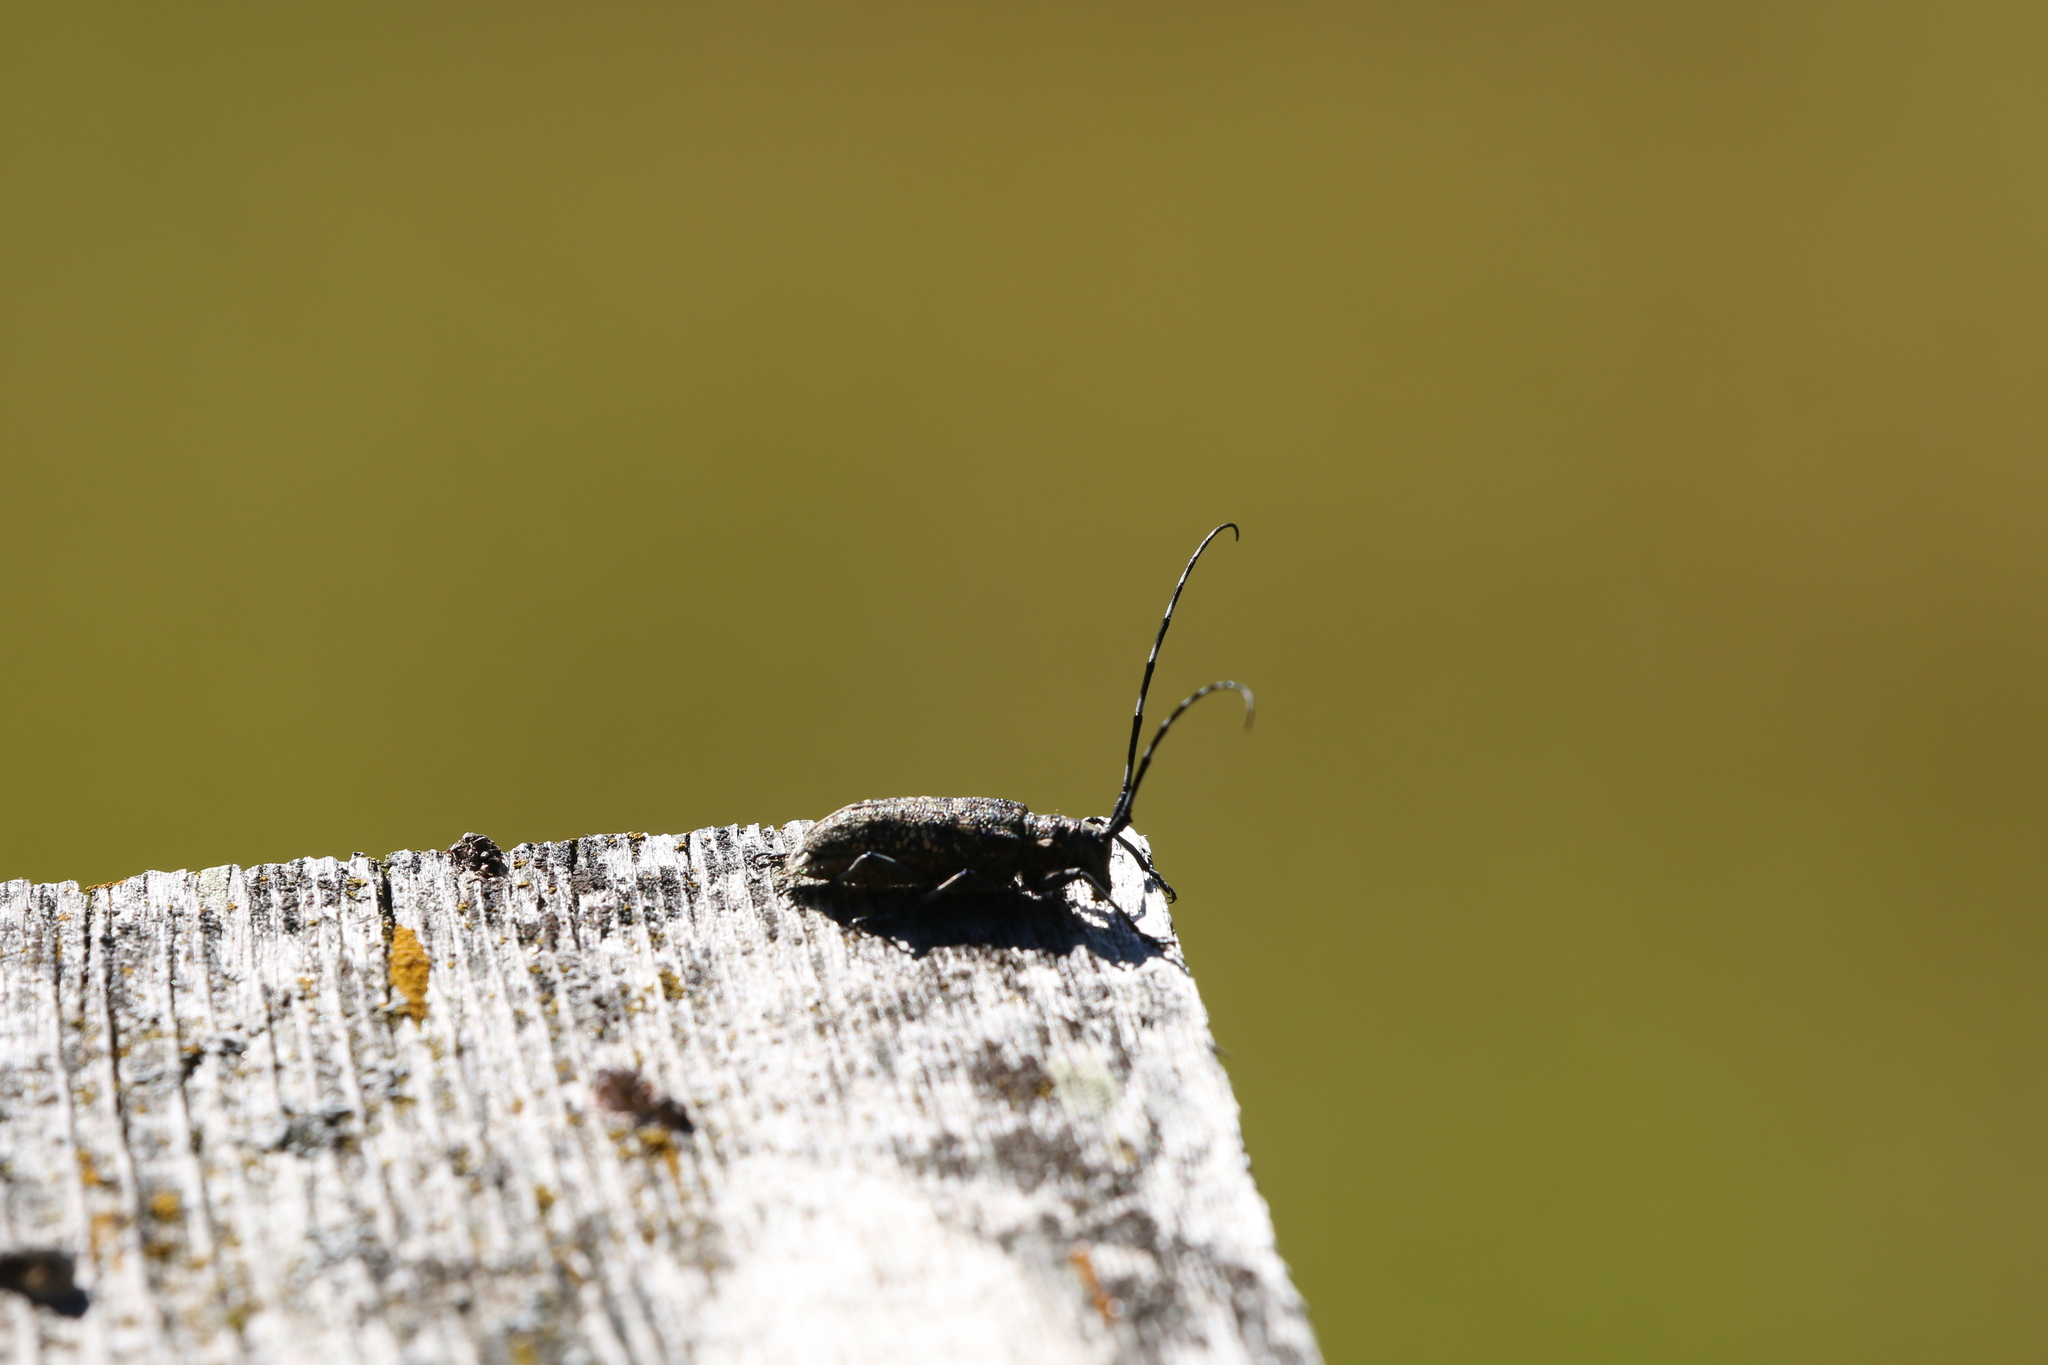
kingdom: Animalia
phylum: Arthropoda
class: Insecta
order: Coleoptera
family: Cerambycidae
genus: Monochamus
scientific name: Monochamus sutor
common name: Pine sawyer
